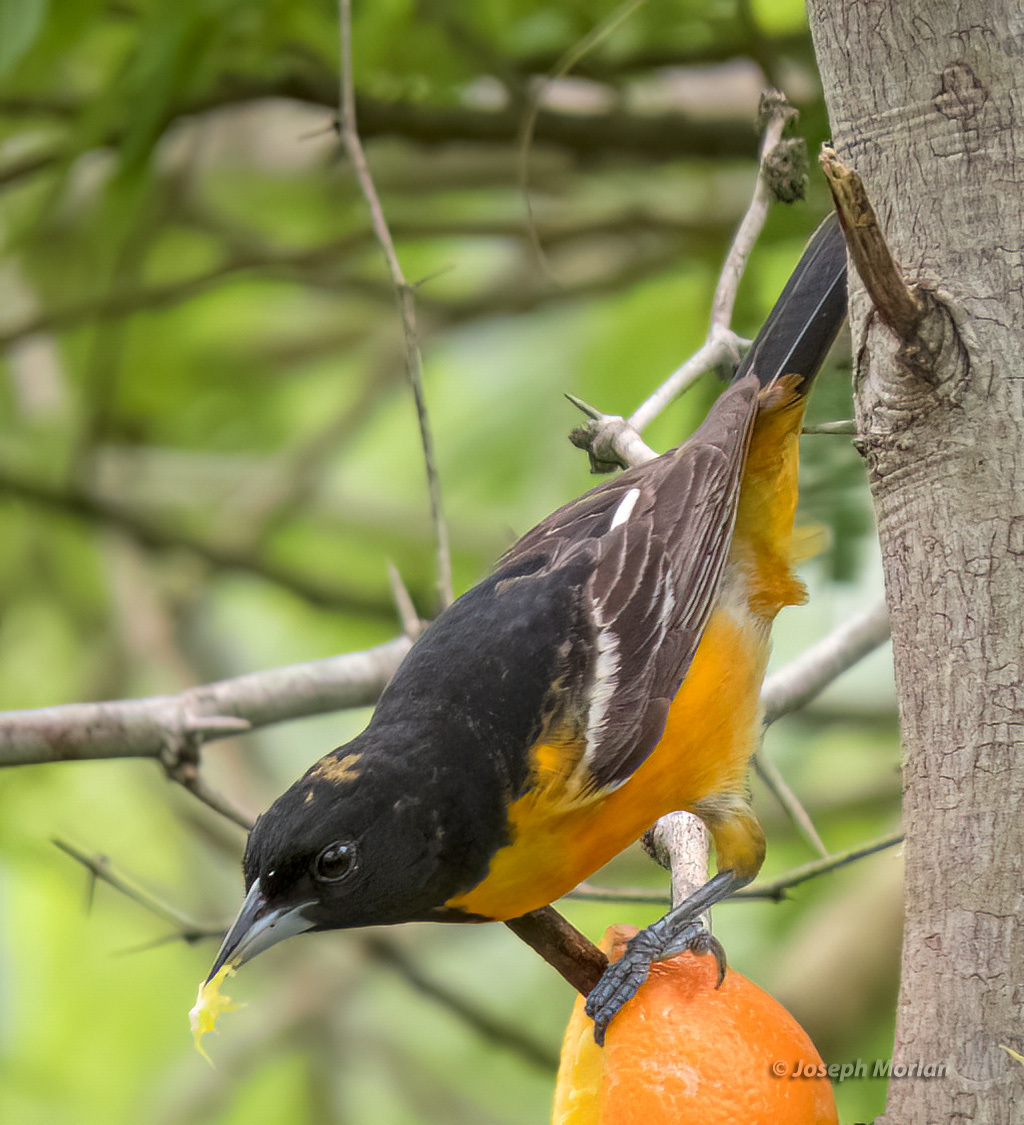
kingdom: Animalia
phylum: Chordata
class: Aves
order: Passeriformes
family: Icteridae
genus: Icterus
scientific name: Icterus galbula
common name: Baltimore oriole
